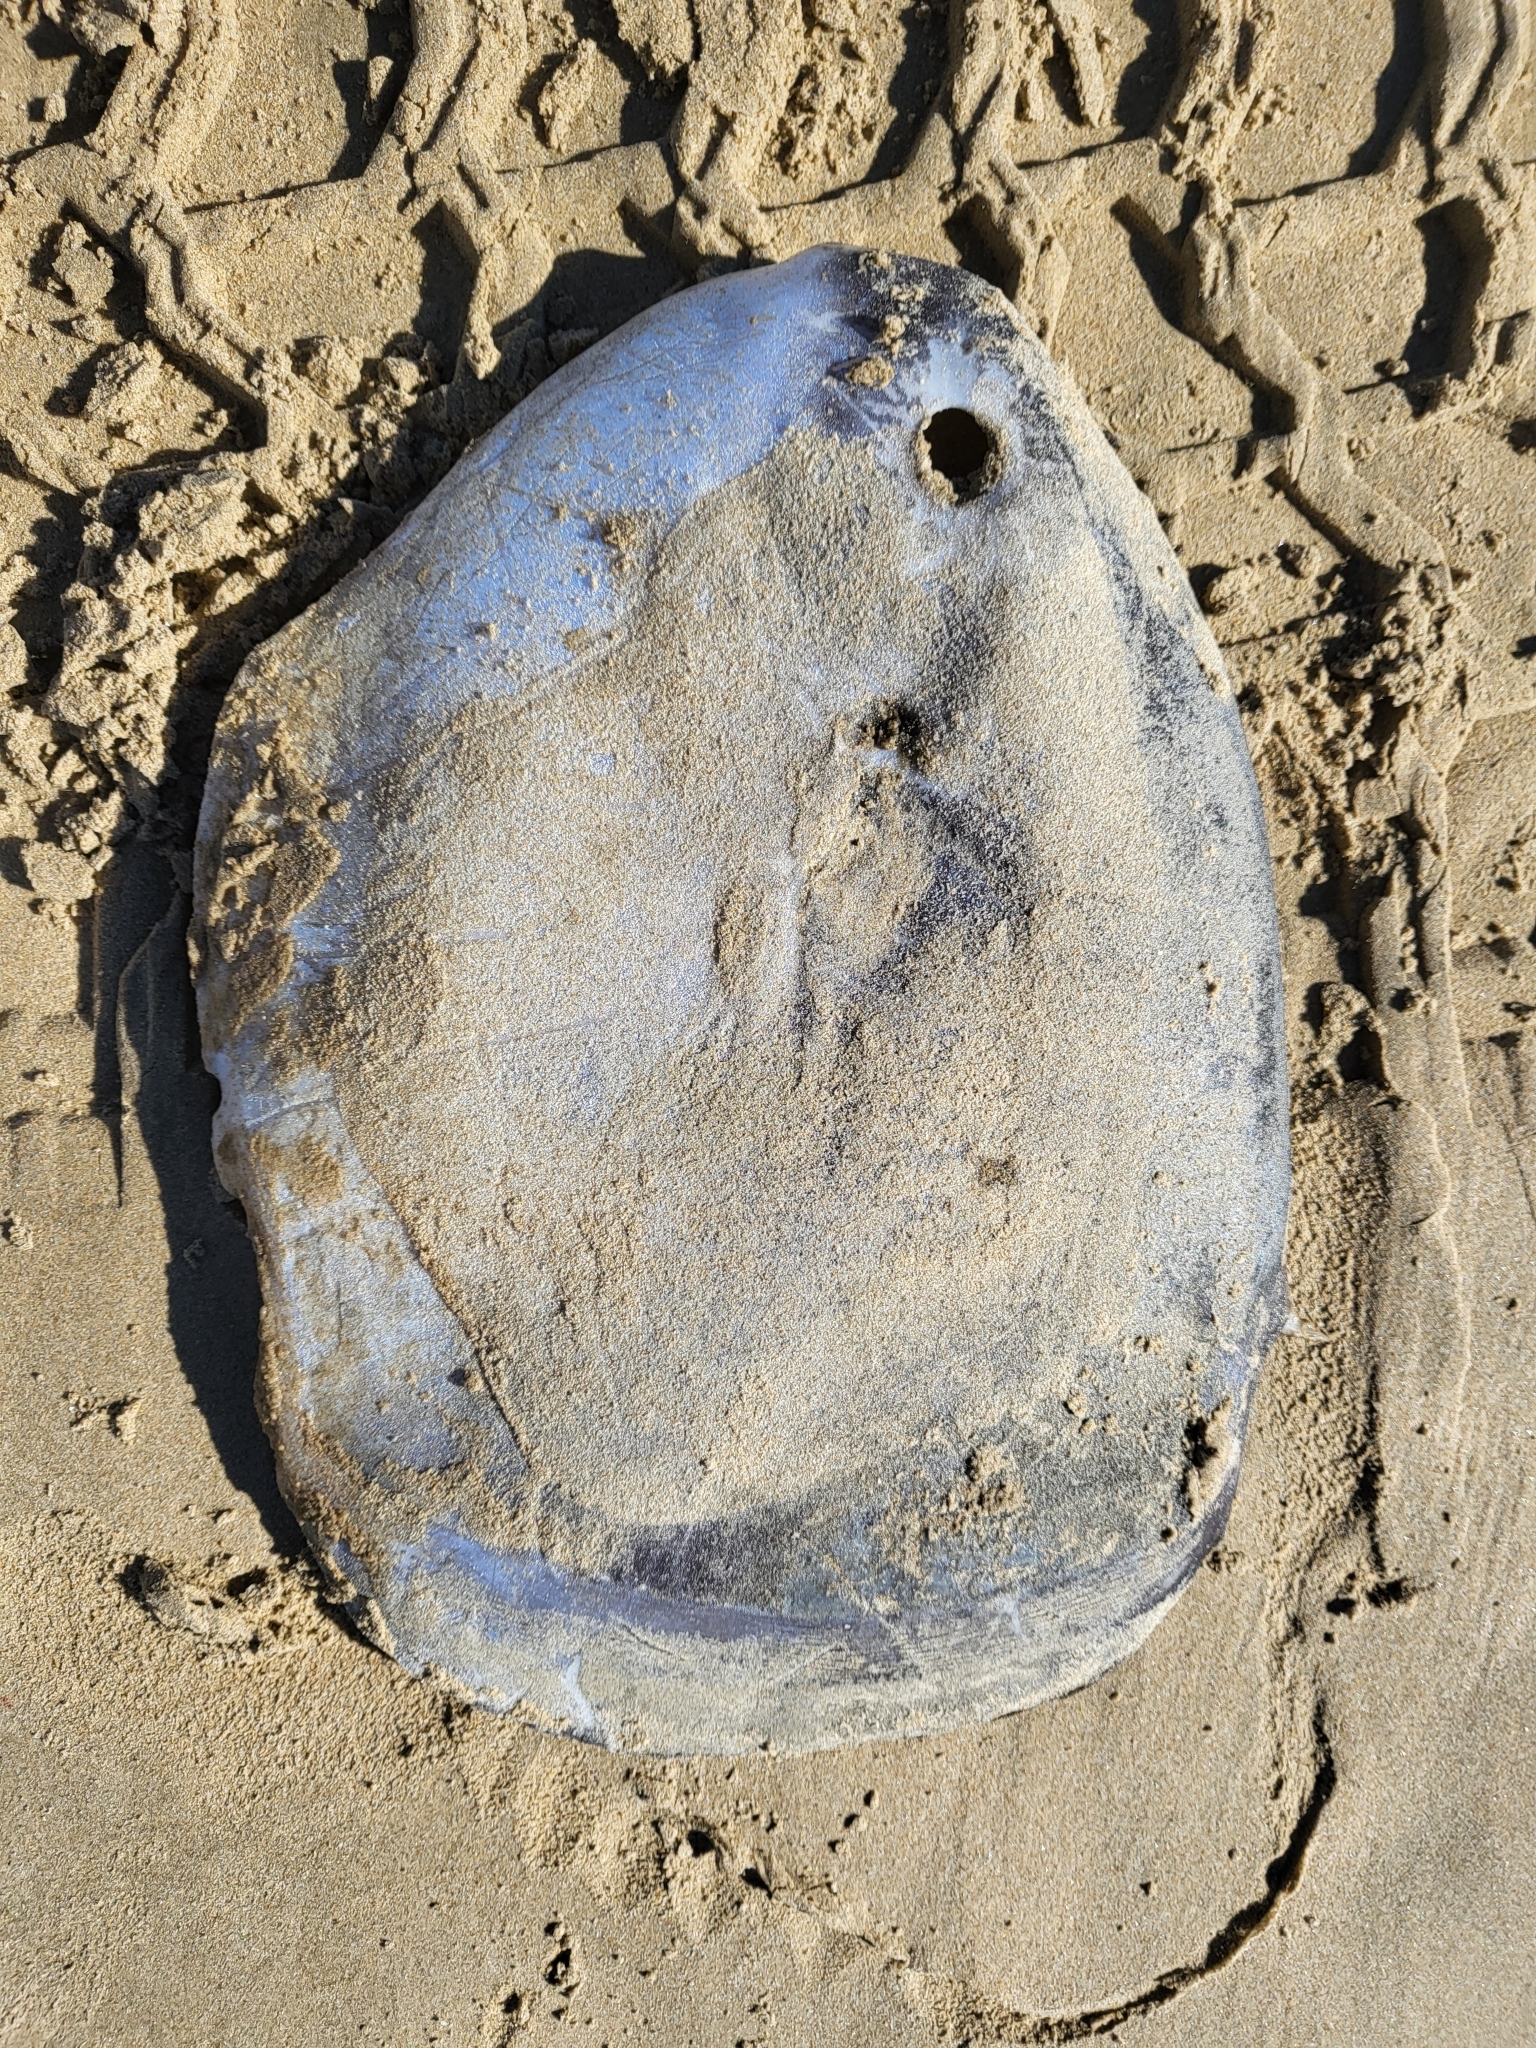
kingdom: Animalia
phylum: Chordata
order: Tetraodontiformes
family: Molidae
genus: Mola
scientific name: Mola mola
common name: Ocean sunfish
